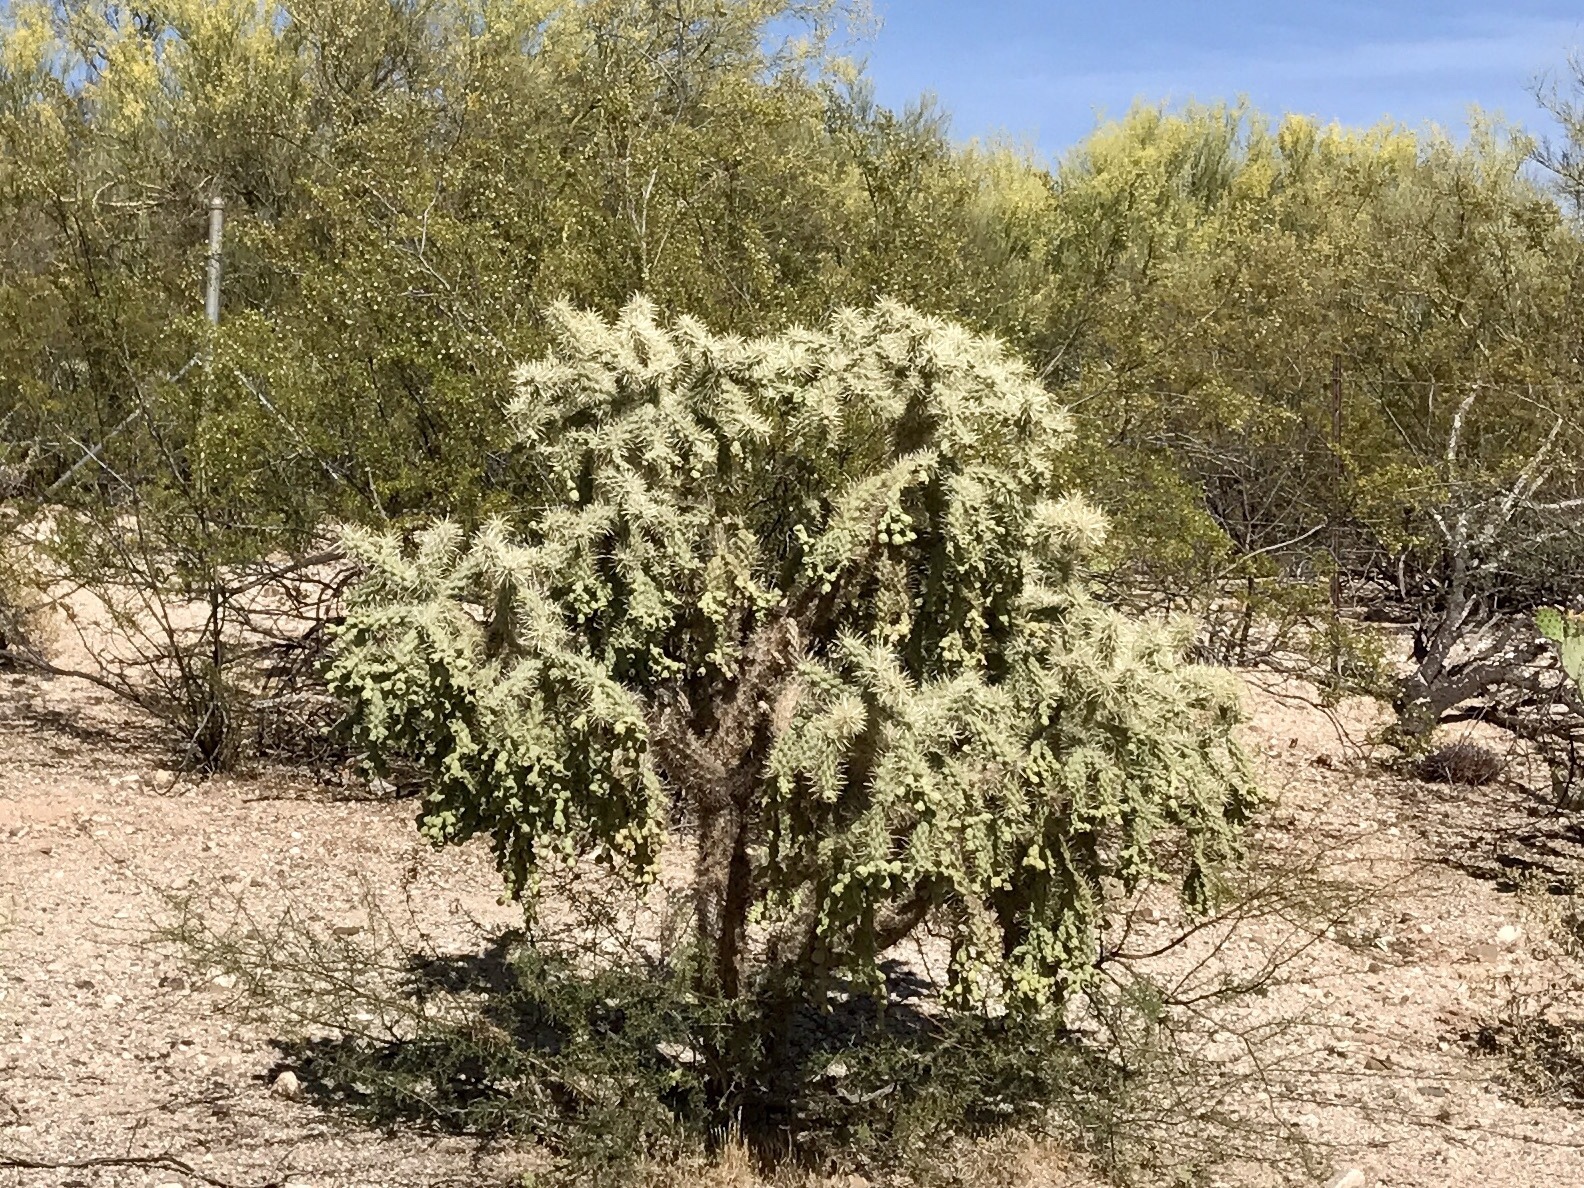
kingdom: Plantae
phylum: Tracheophyta
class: Magnoliopsida
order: Caryophyllales
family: Cactaceae
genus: Cylindropuntia
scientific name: Cylindropuntia fulgida
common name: Jumping cholla
